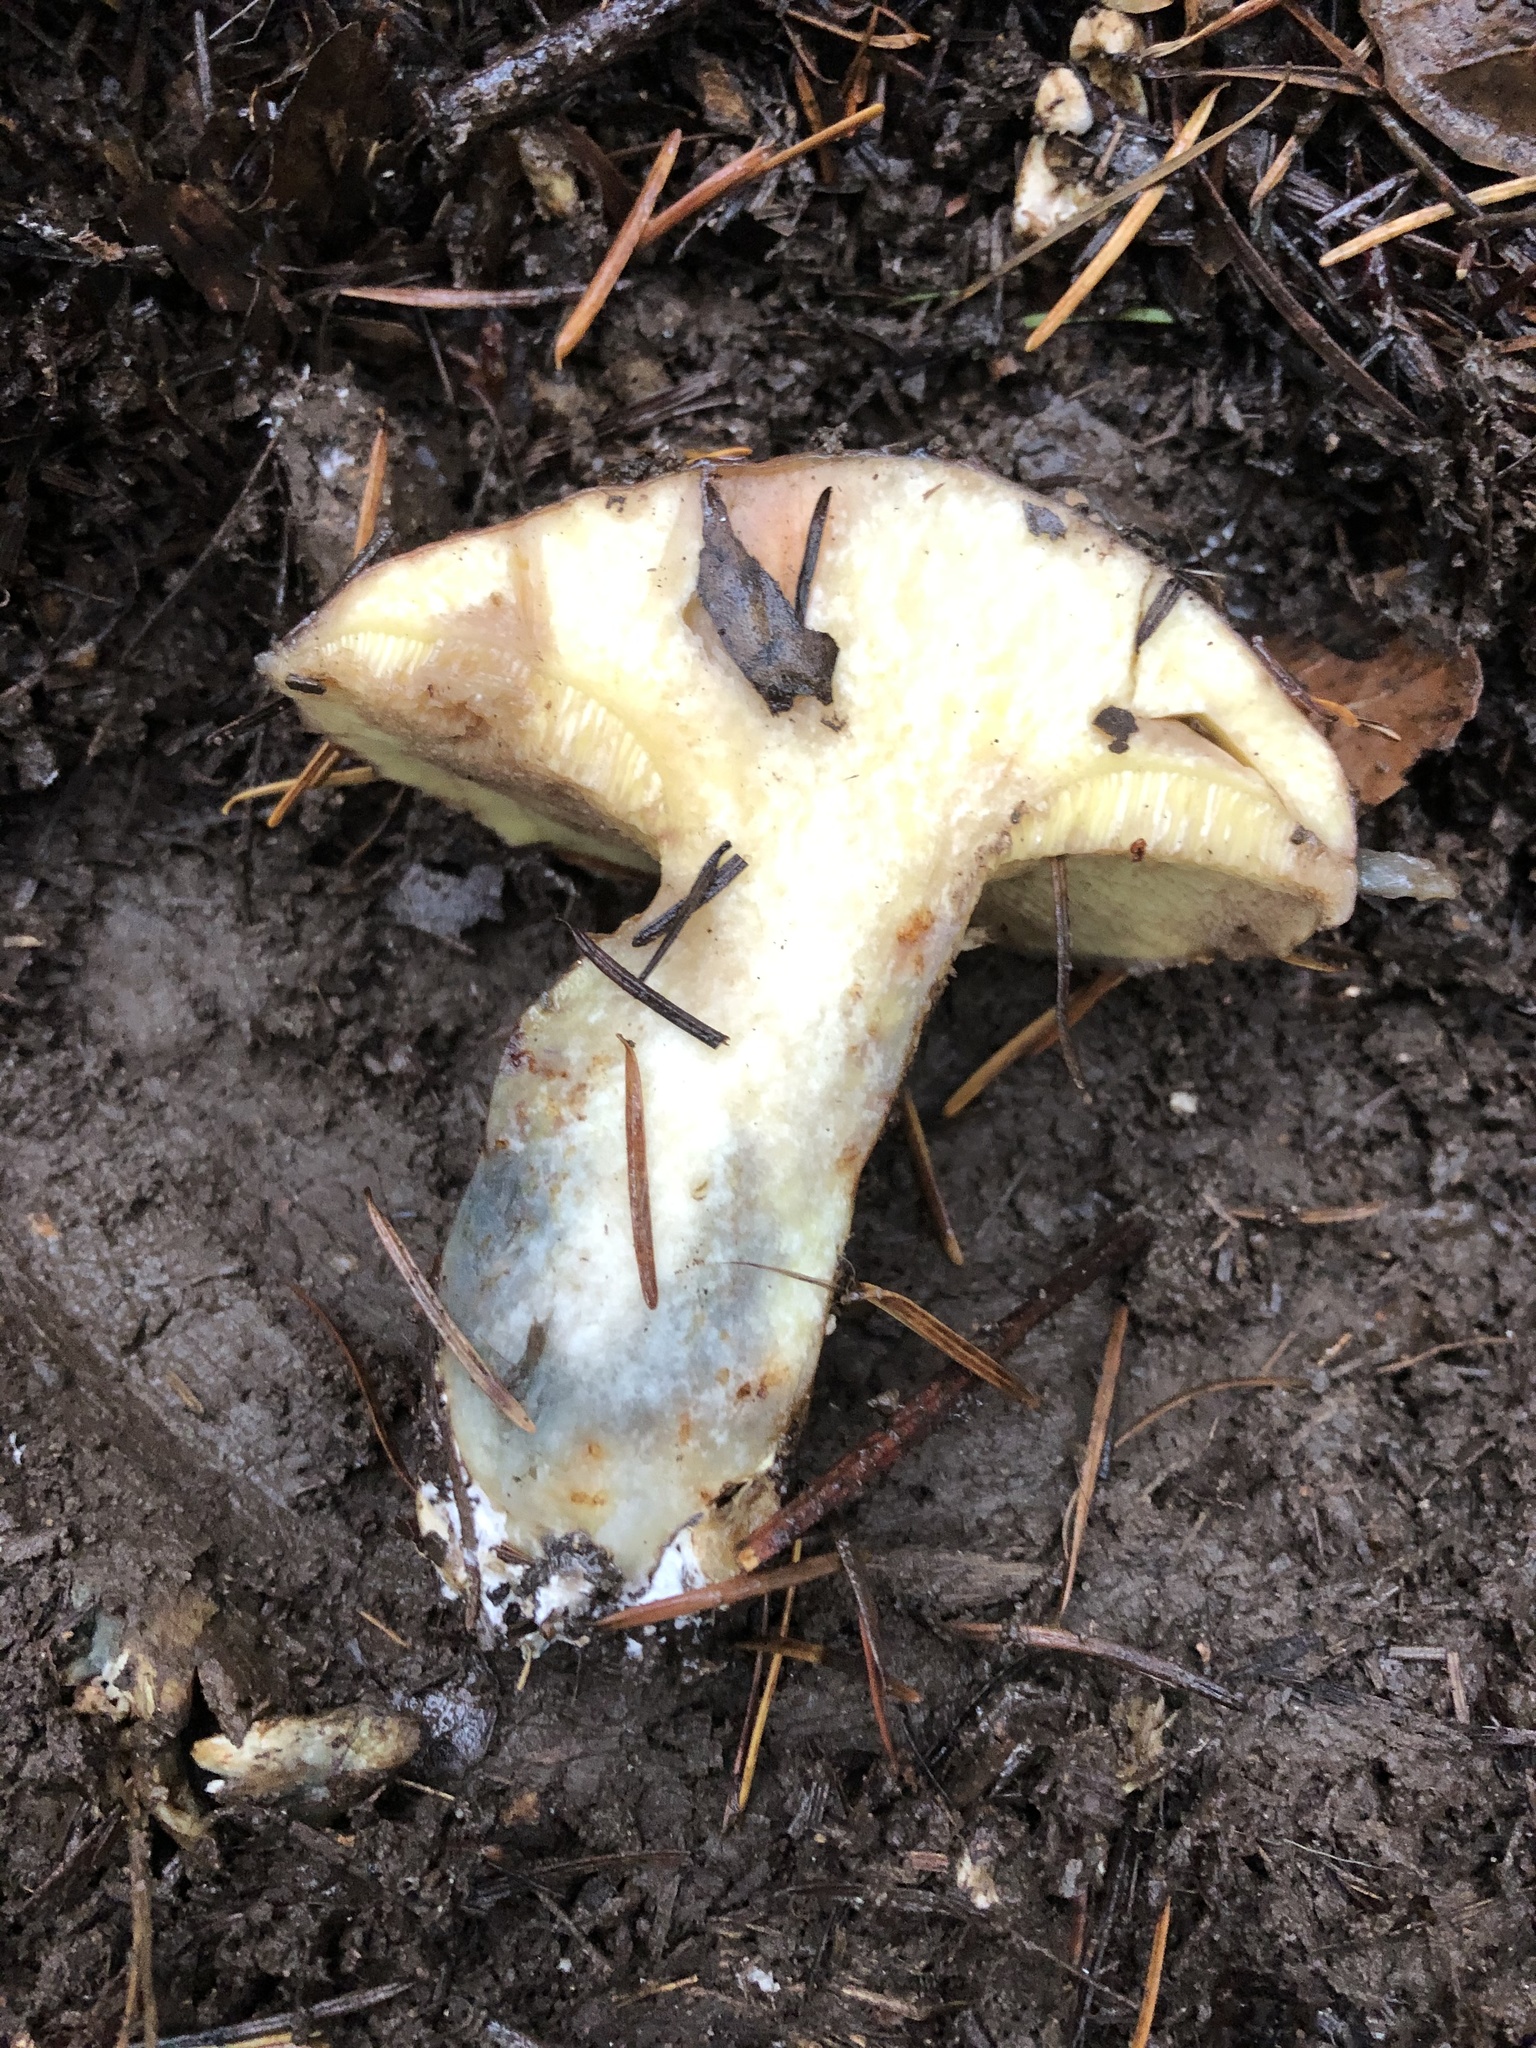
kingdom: Fungi
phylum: Basidiomycota
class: Agaricomycetes
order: Boletales
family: Suillaceae
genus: Suillus
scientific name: Suillus caerulescens
